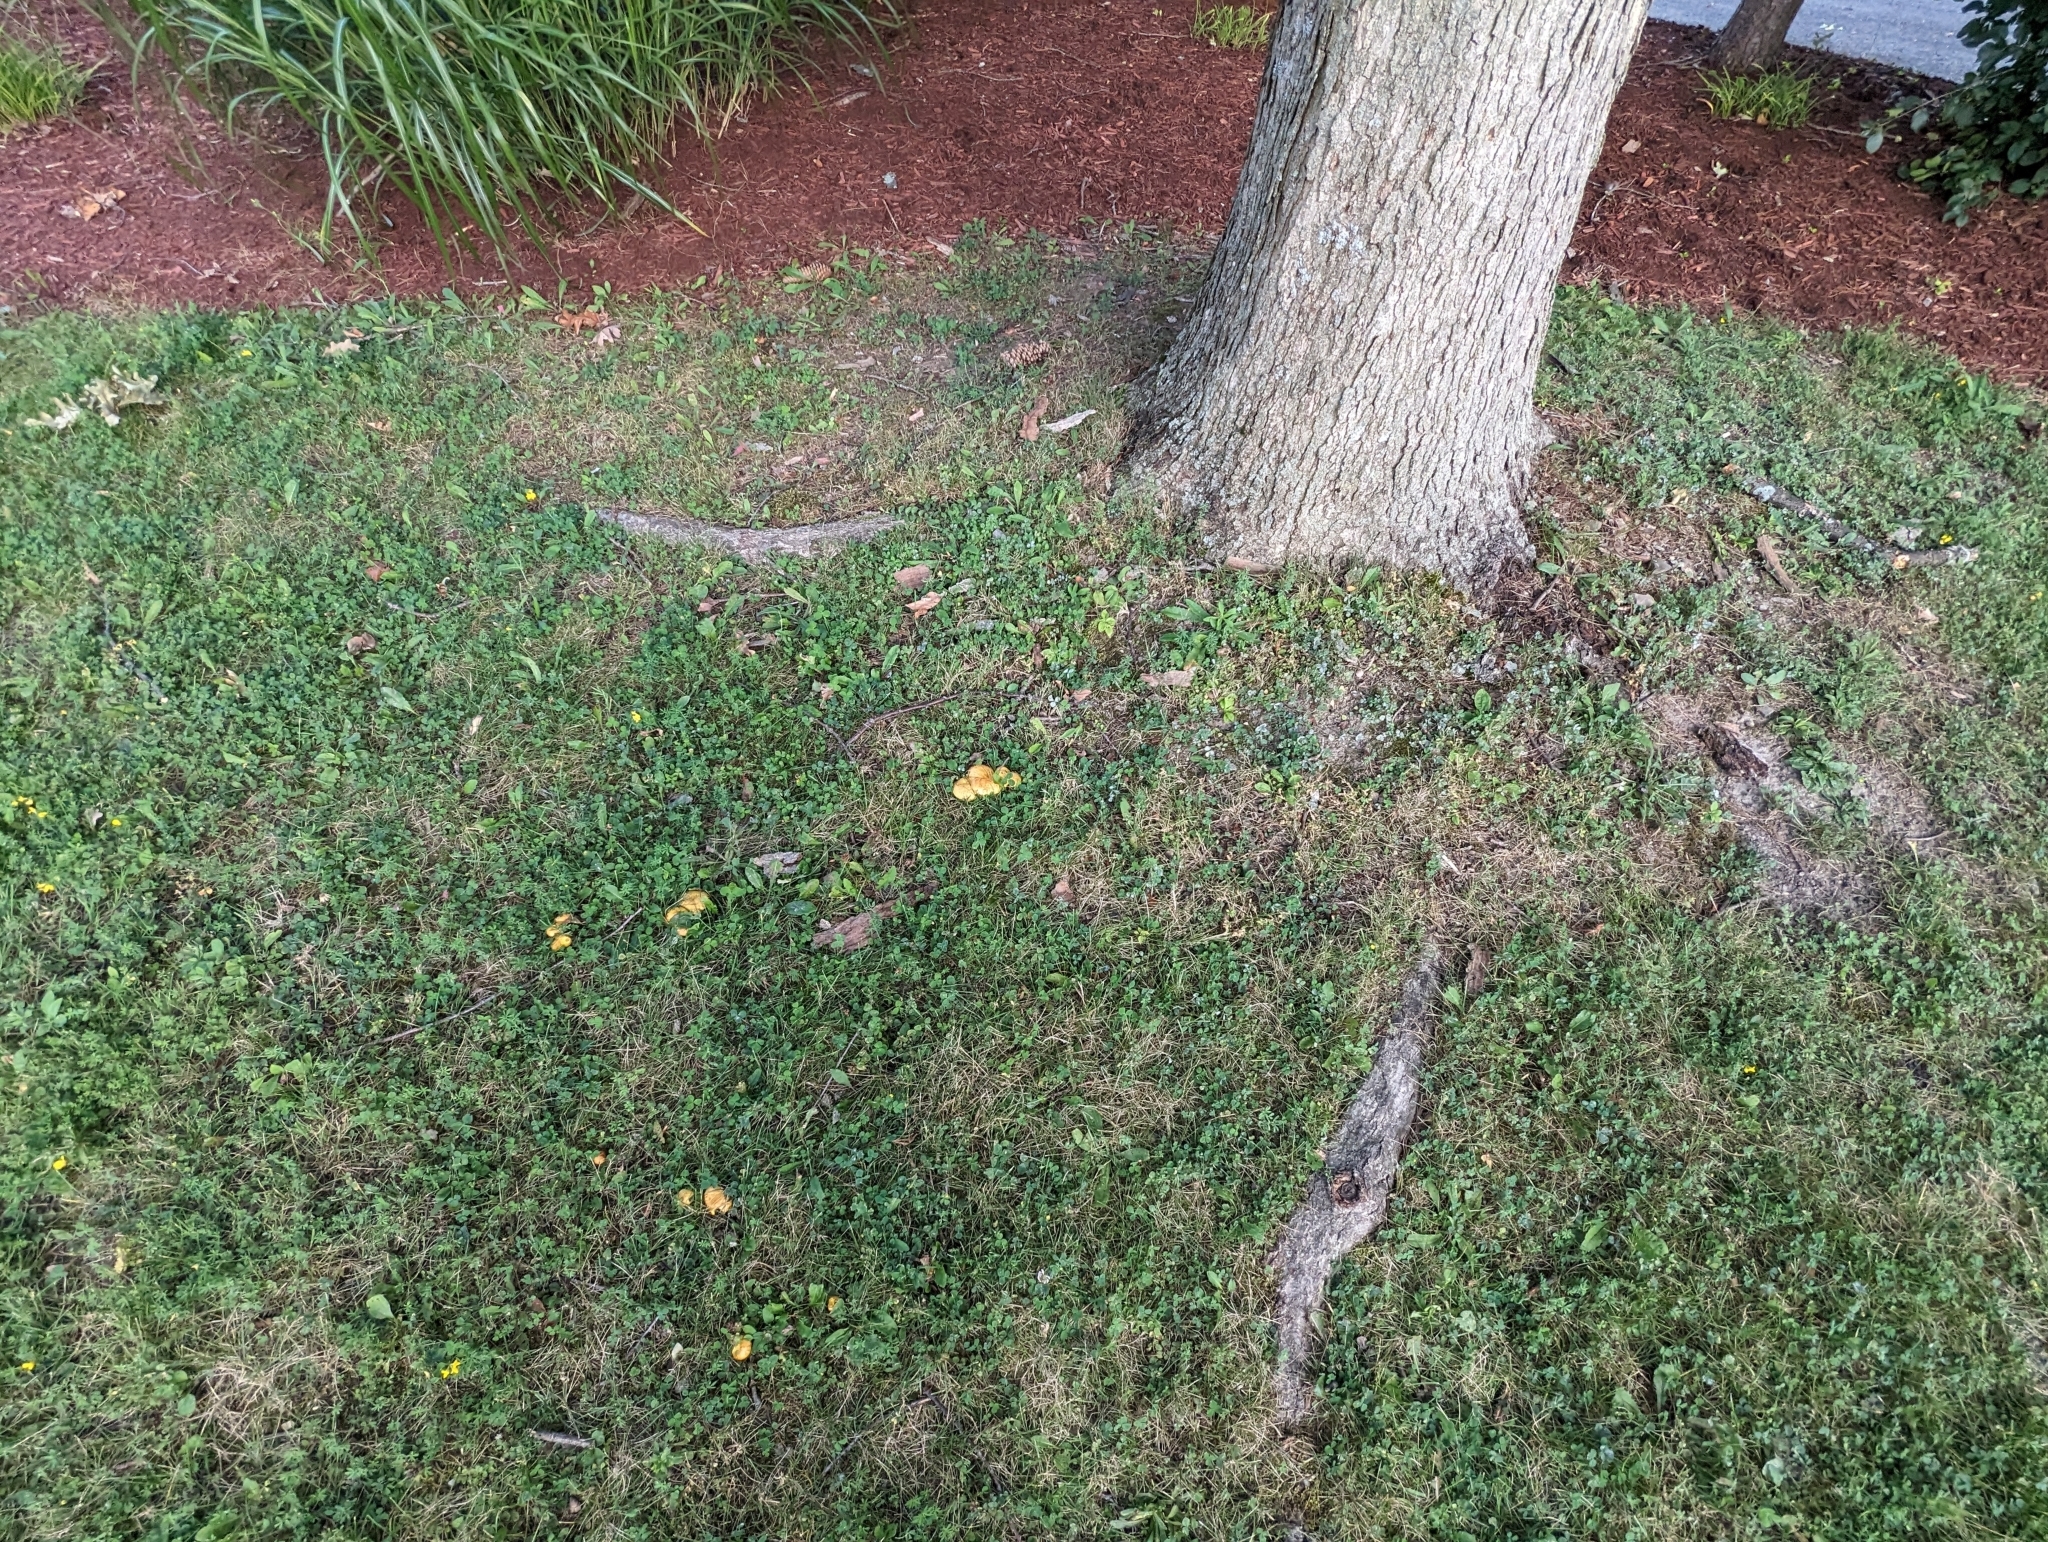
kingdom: Fungi
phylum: Basidiomycota
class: Agaricomycetes
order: Boletales
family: Suillaceae
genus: Suillus
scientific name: Suillus americanus
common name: Chicken fat mushroom
